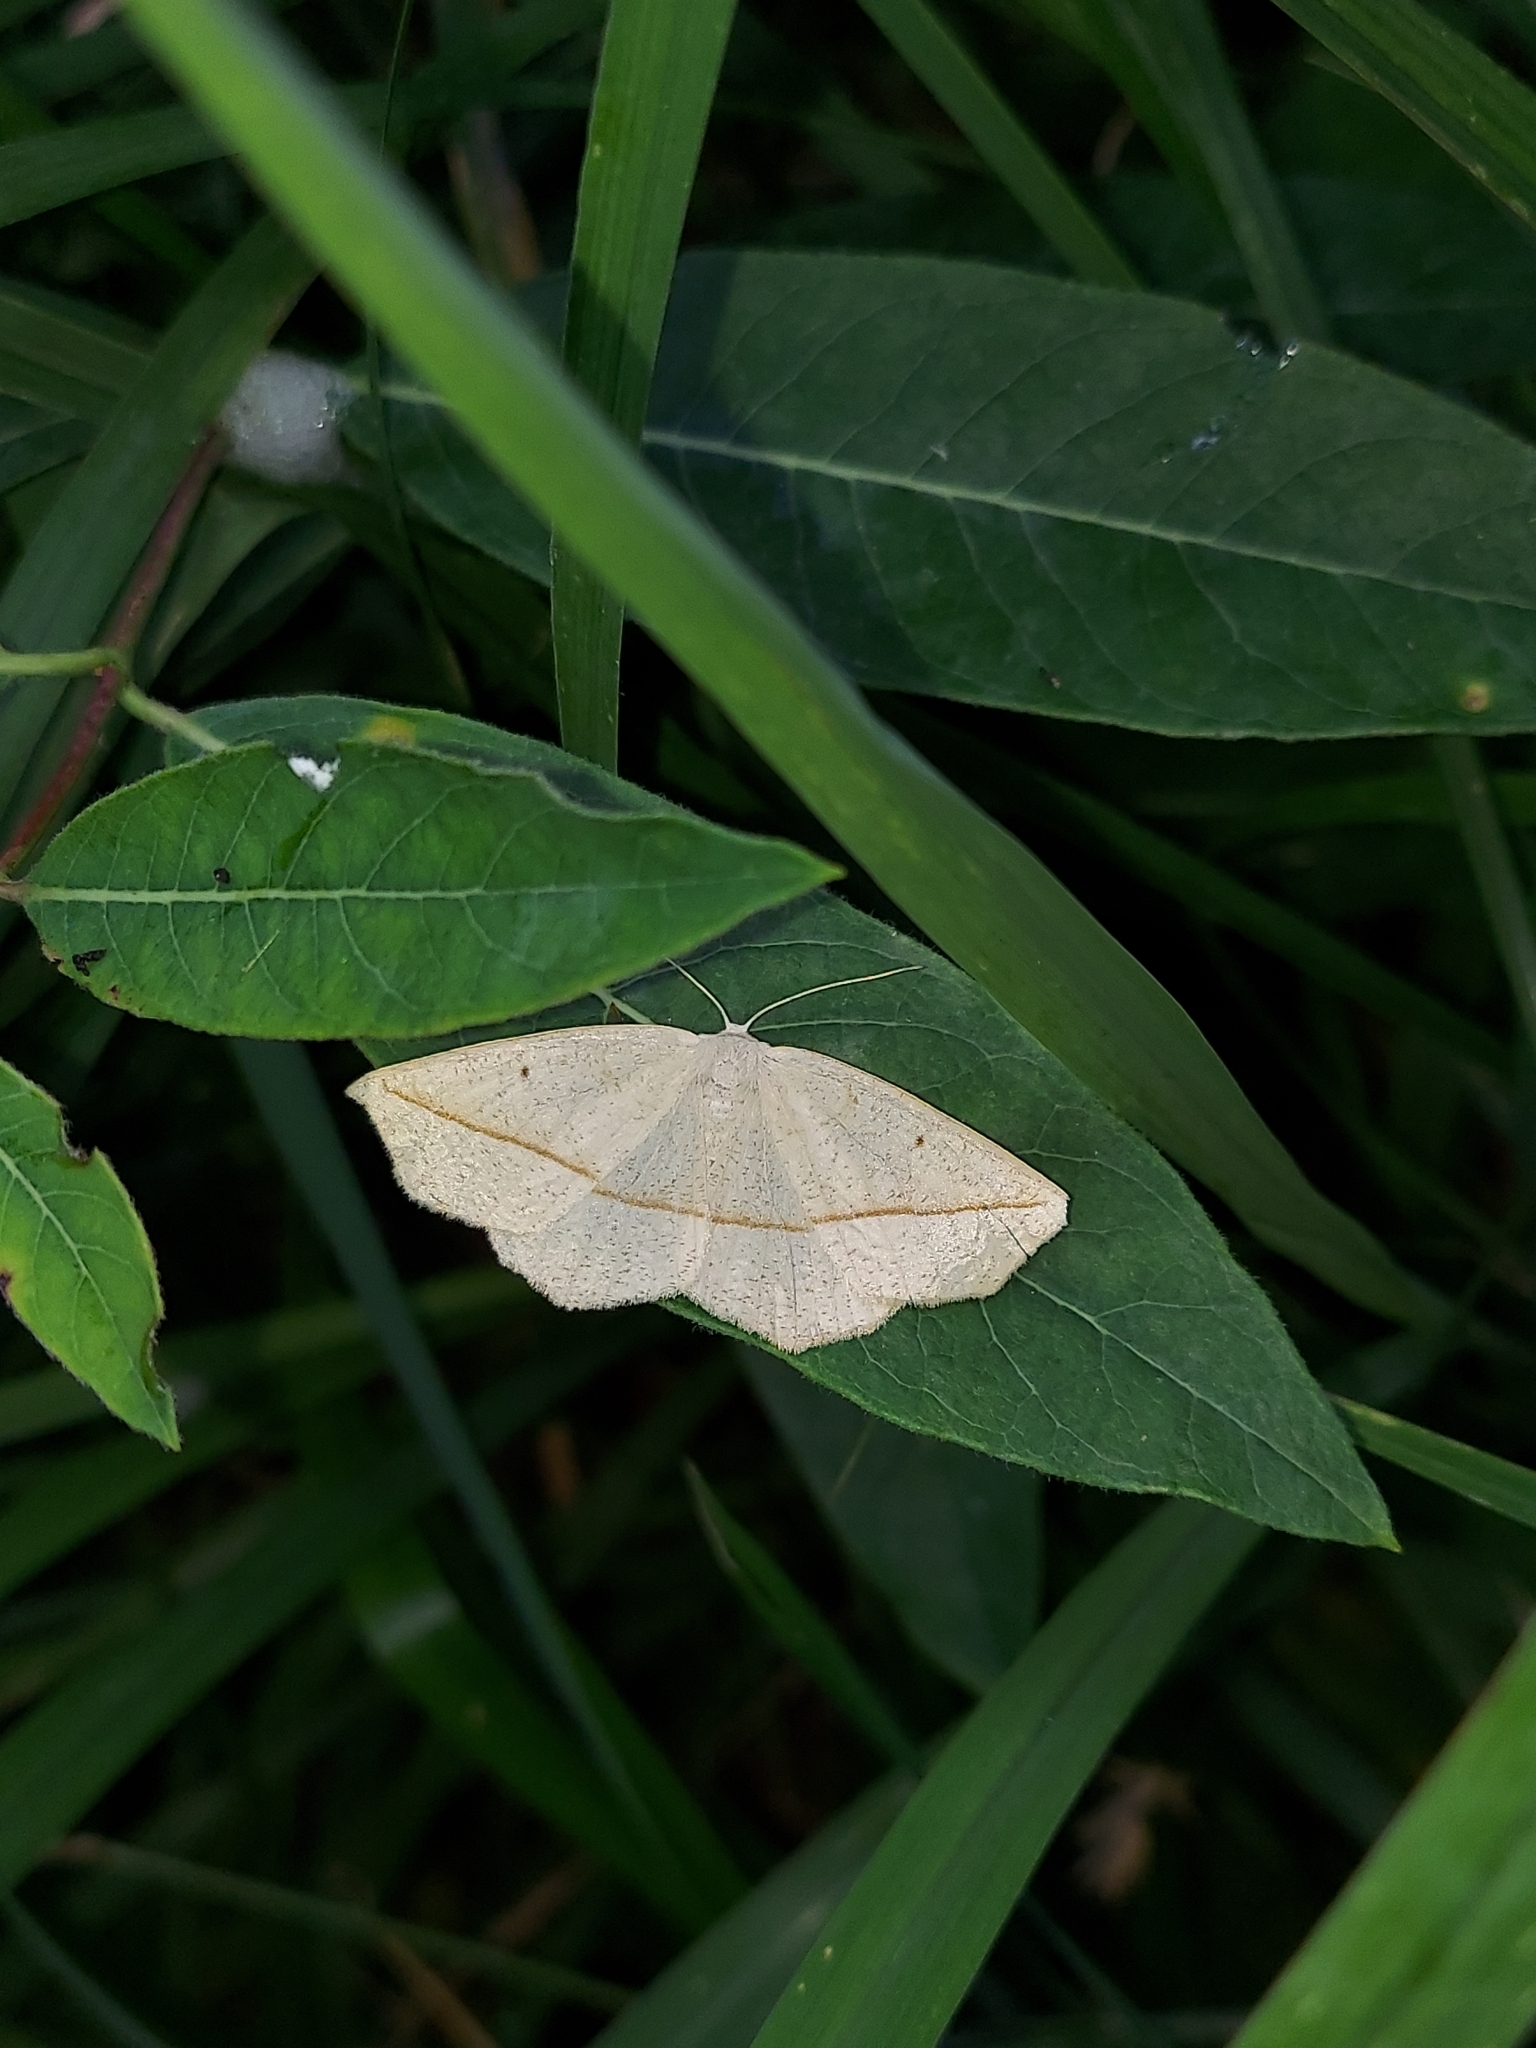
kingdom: Animalia
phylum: Arthropoda
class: Insecta
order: Lepidoptera
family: Geometridae
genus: Eusarca
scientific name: Eusarca confusaria
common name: Confused eusarca
